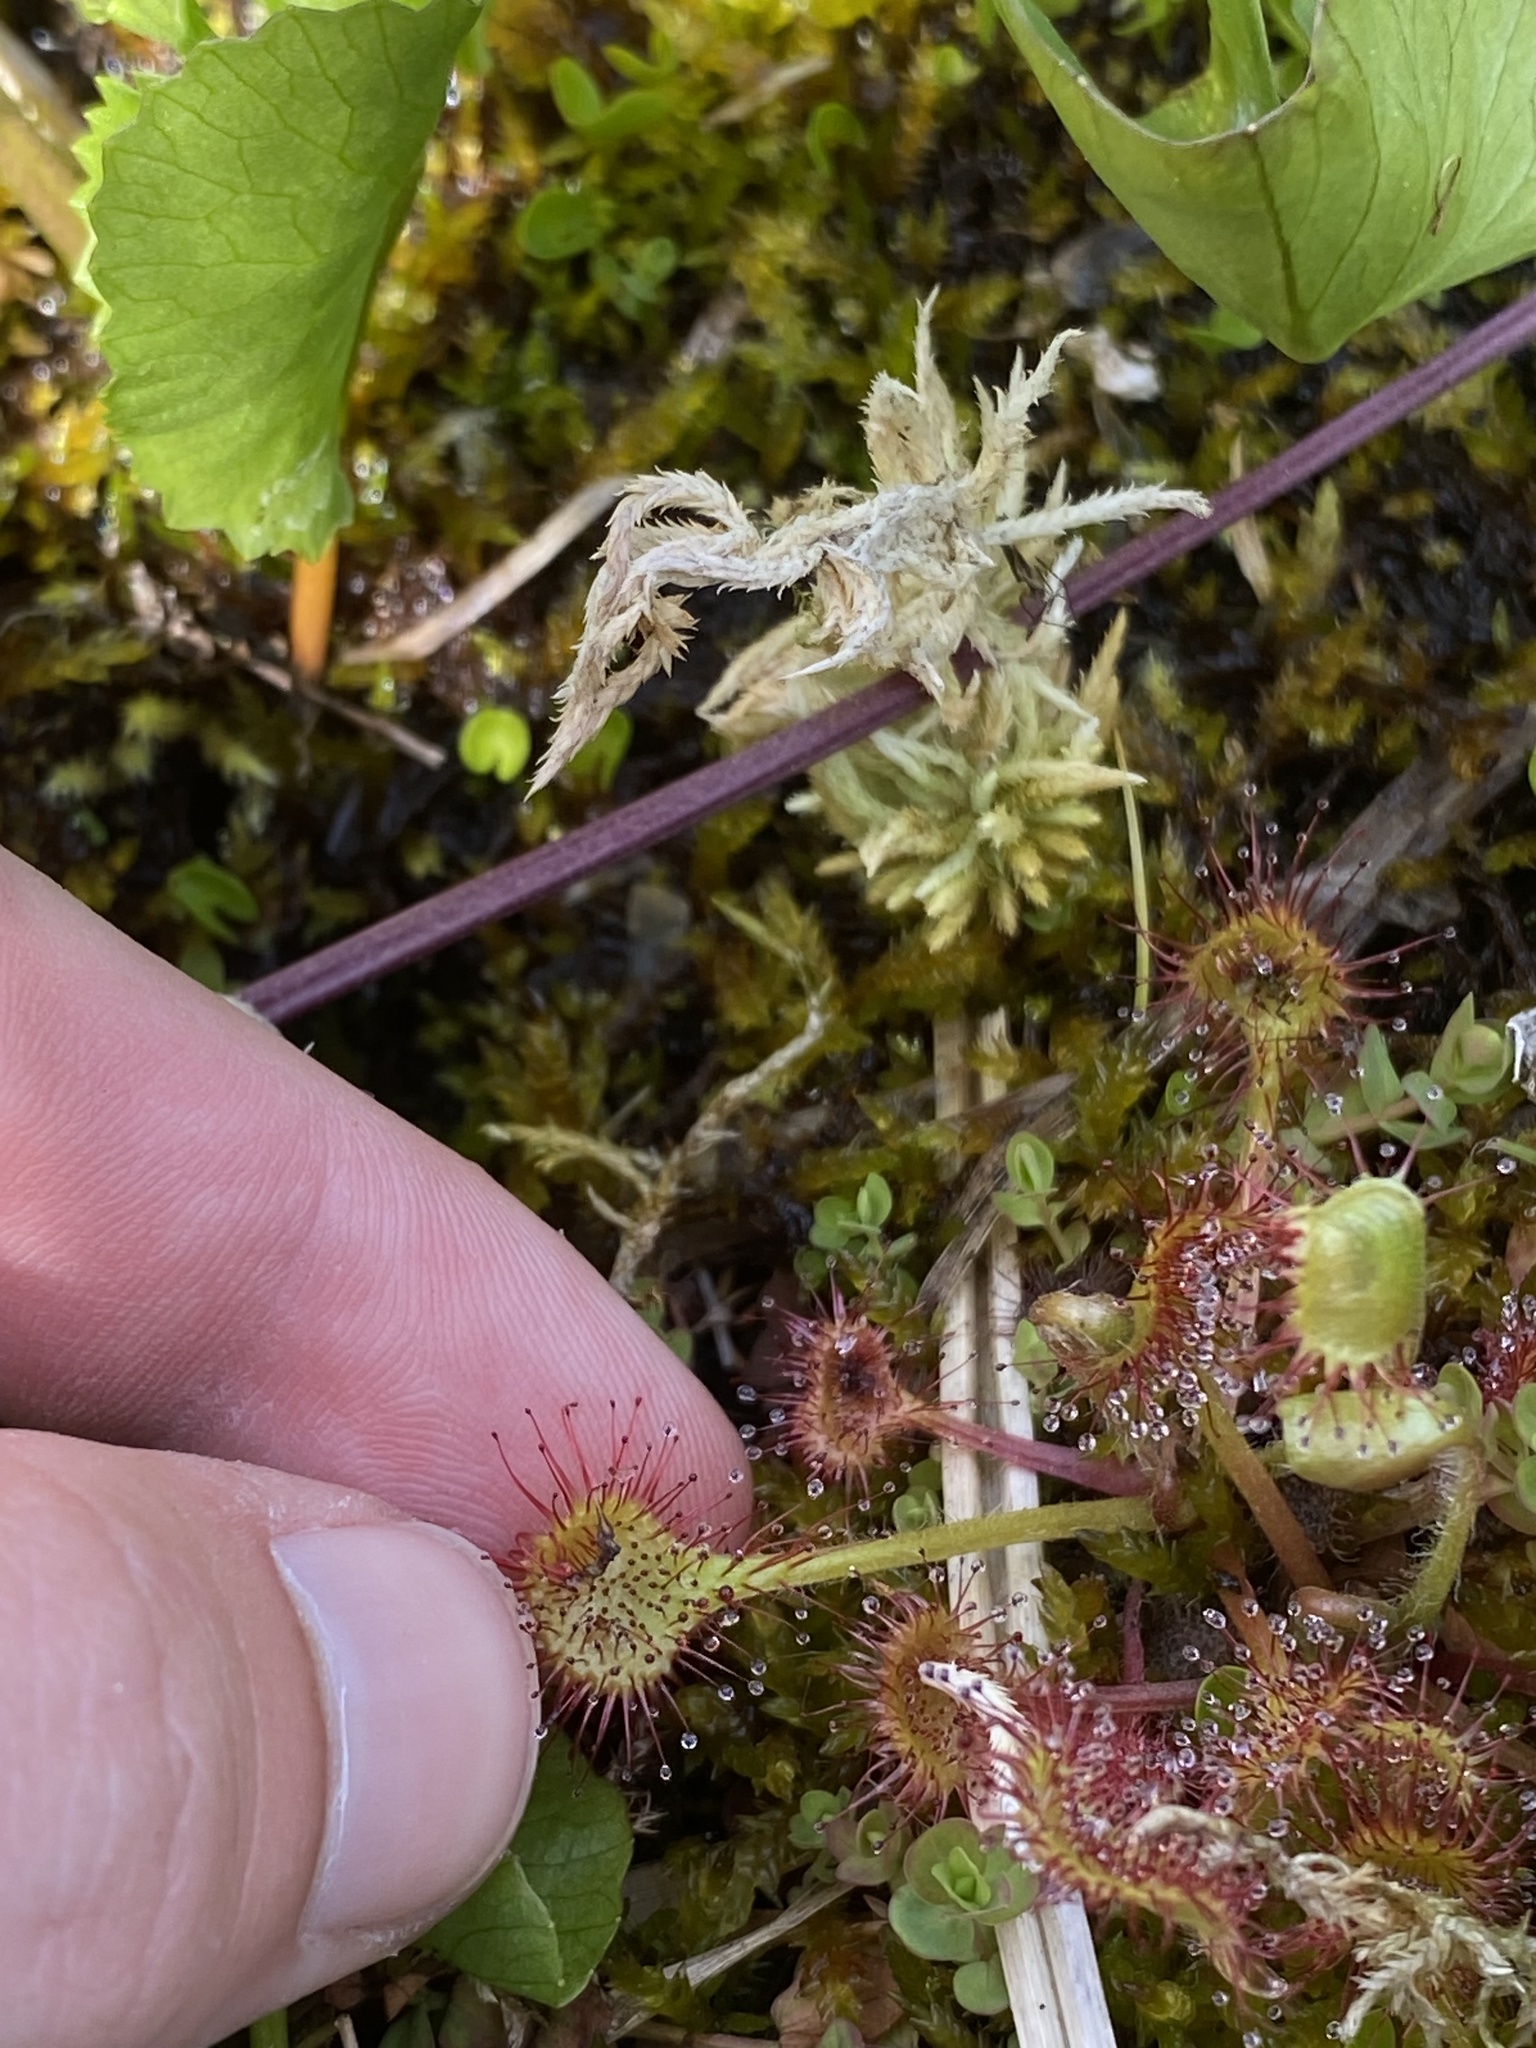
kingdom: Plantae
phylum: Tracheophyta
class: Magnoliopsida
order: Caryophyllales
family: Droseraceae
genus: Drosera
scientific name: Drosera rotundifolia
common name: Round-leaved sundew
